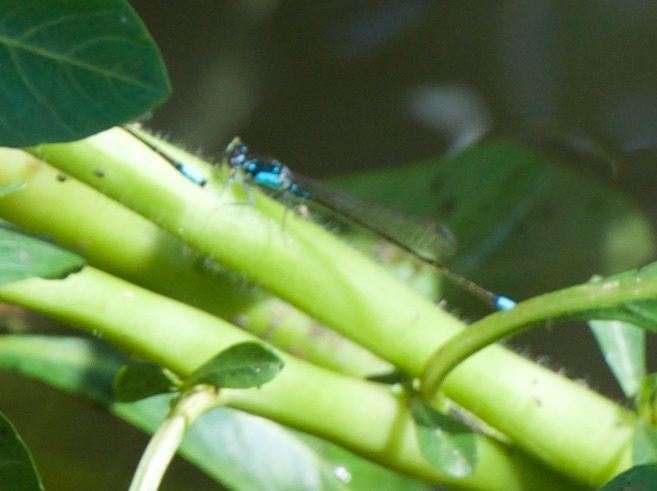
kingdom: Animalia
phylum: Arthropoda
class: Insecta
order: Odonata
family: Coenagrionidae
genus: Ischnura
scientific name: Ischnura cervula
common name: Pacific forktail
